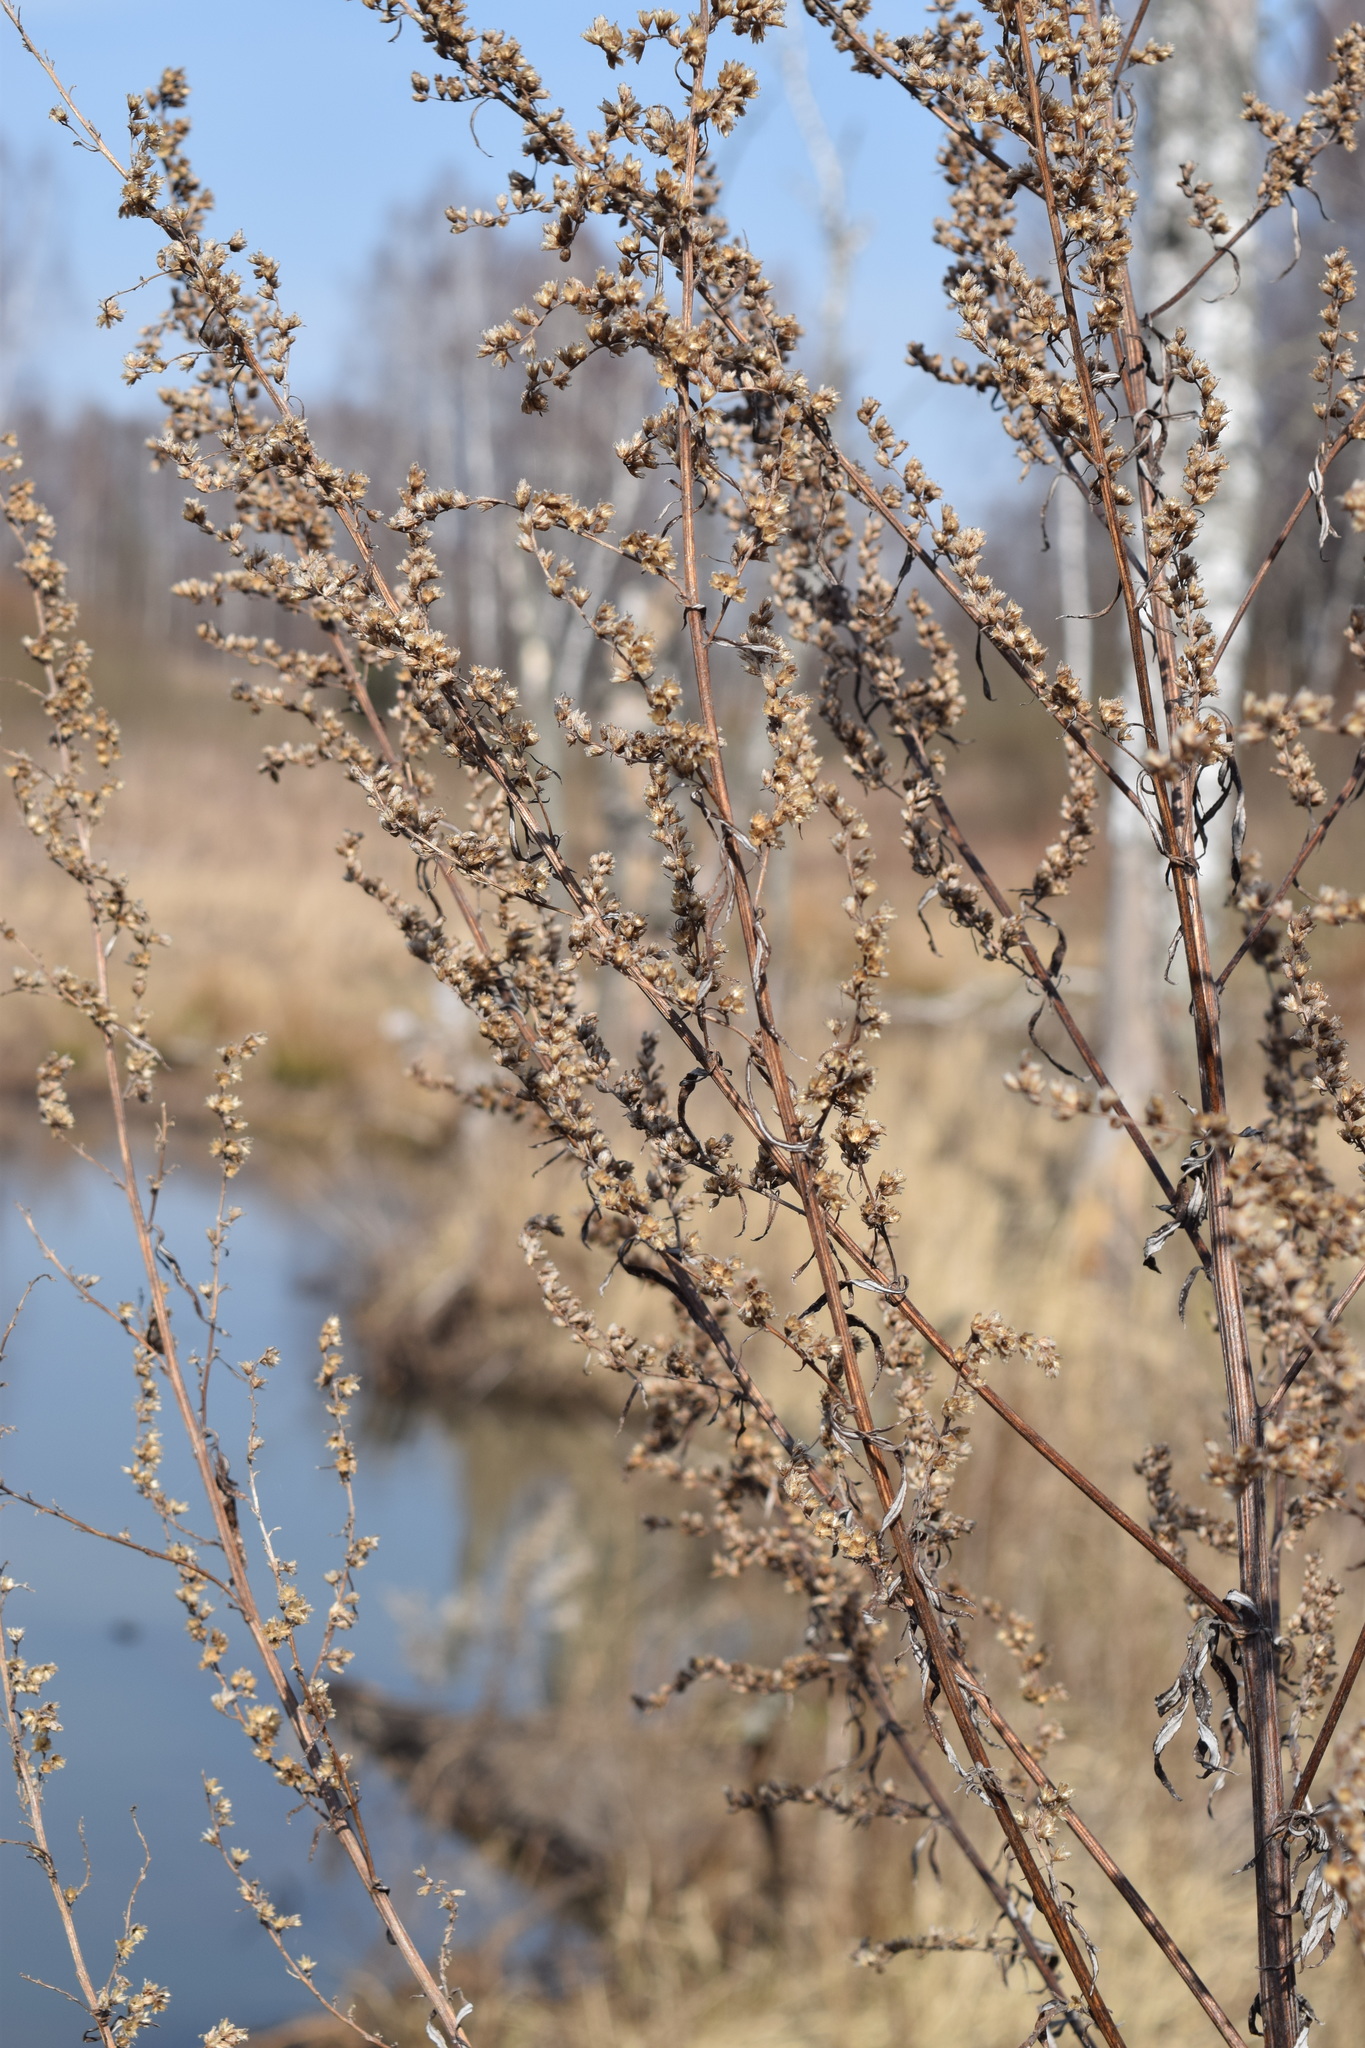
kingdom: Plantae
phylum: Tracheophyta
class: Magnoliopsida
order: Asterales
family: Asteraceae
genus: Artemisia
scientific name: Artemisia vulgaris
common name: Mugwort
